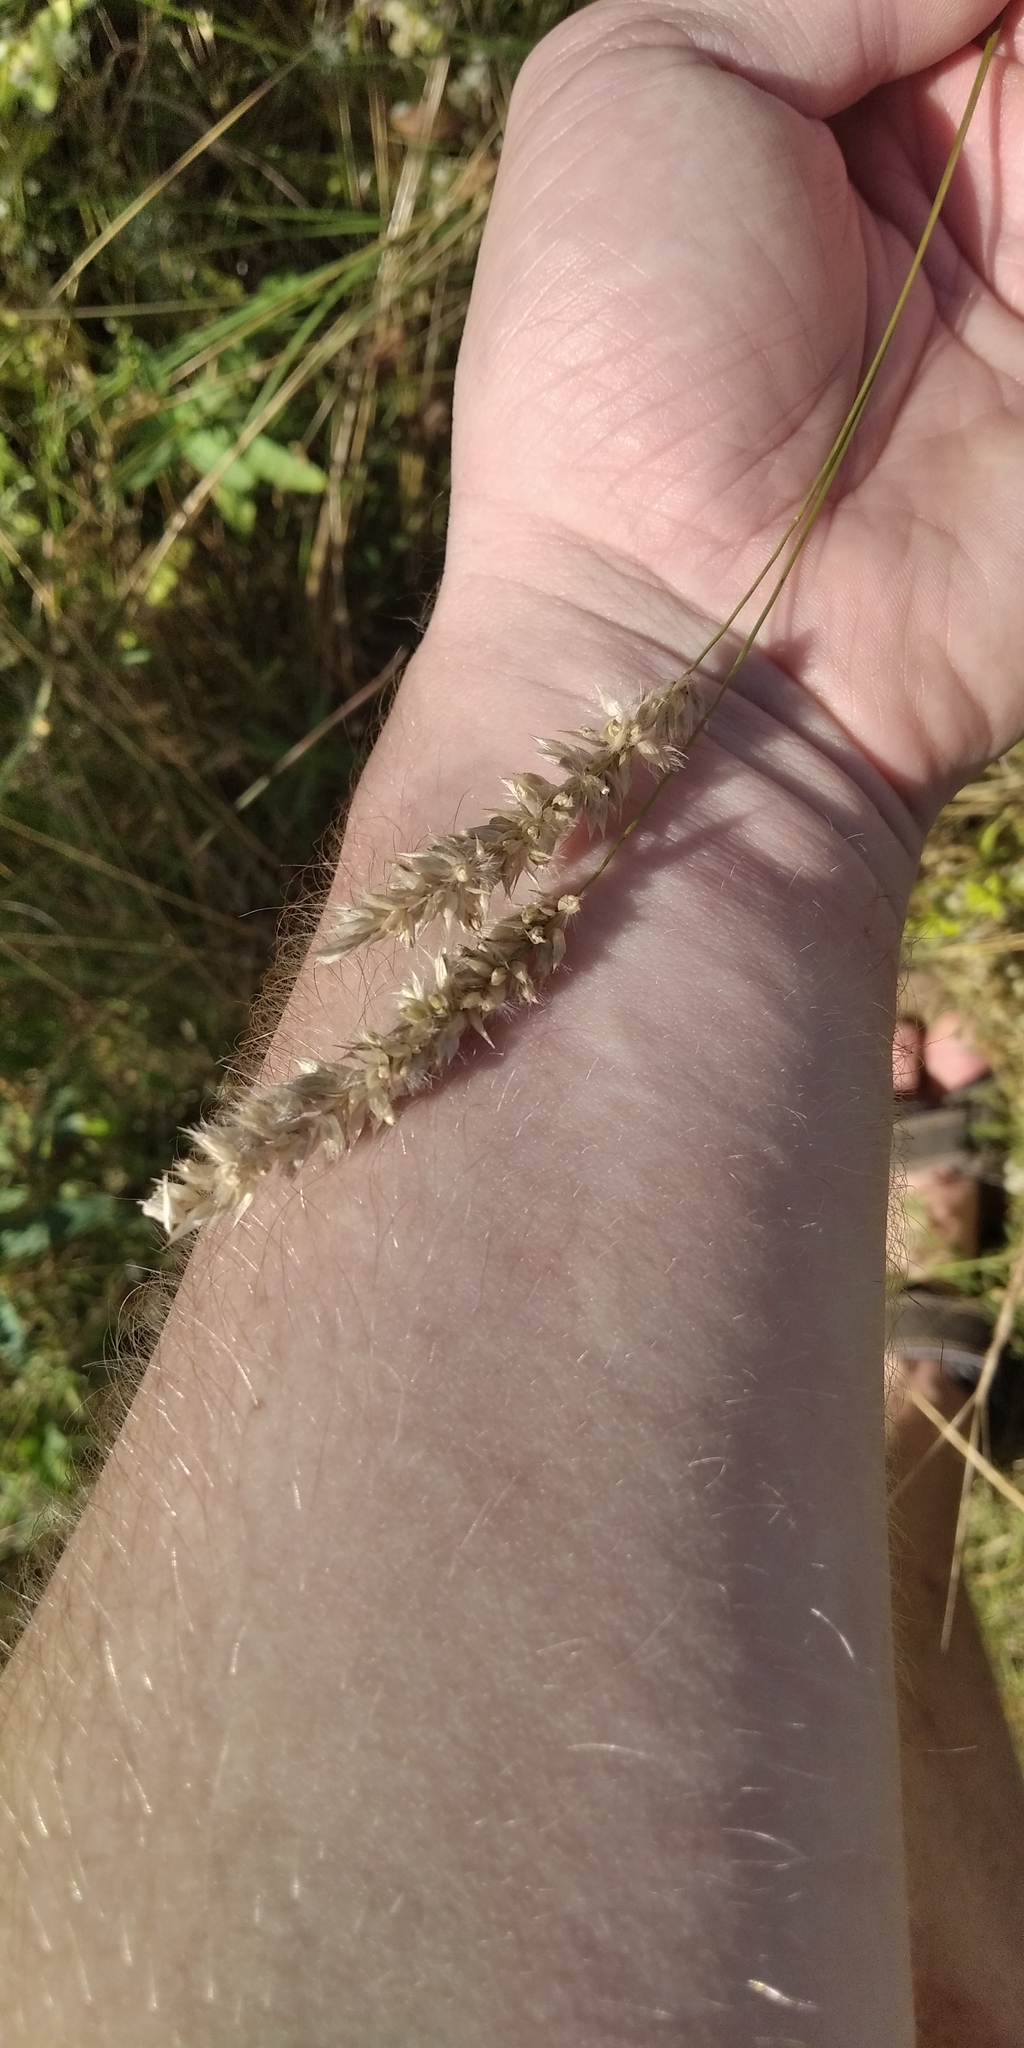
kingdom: Plantae
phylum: Tracheophyta
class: Liliopsida
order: Poales
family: Poaceae
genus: Melica
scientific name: Melica transsilvanica
